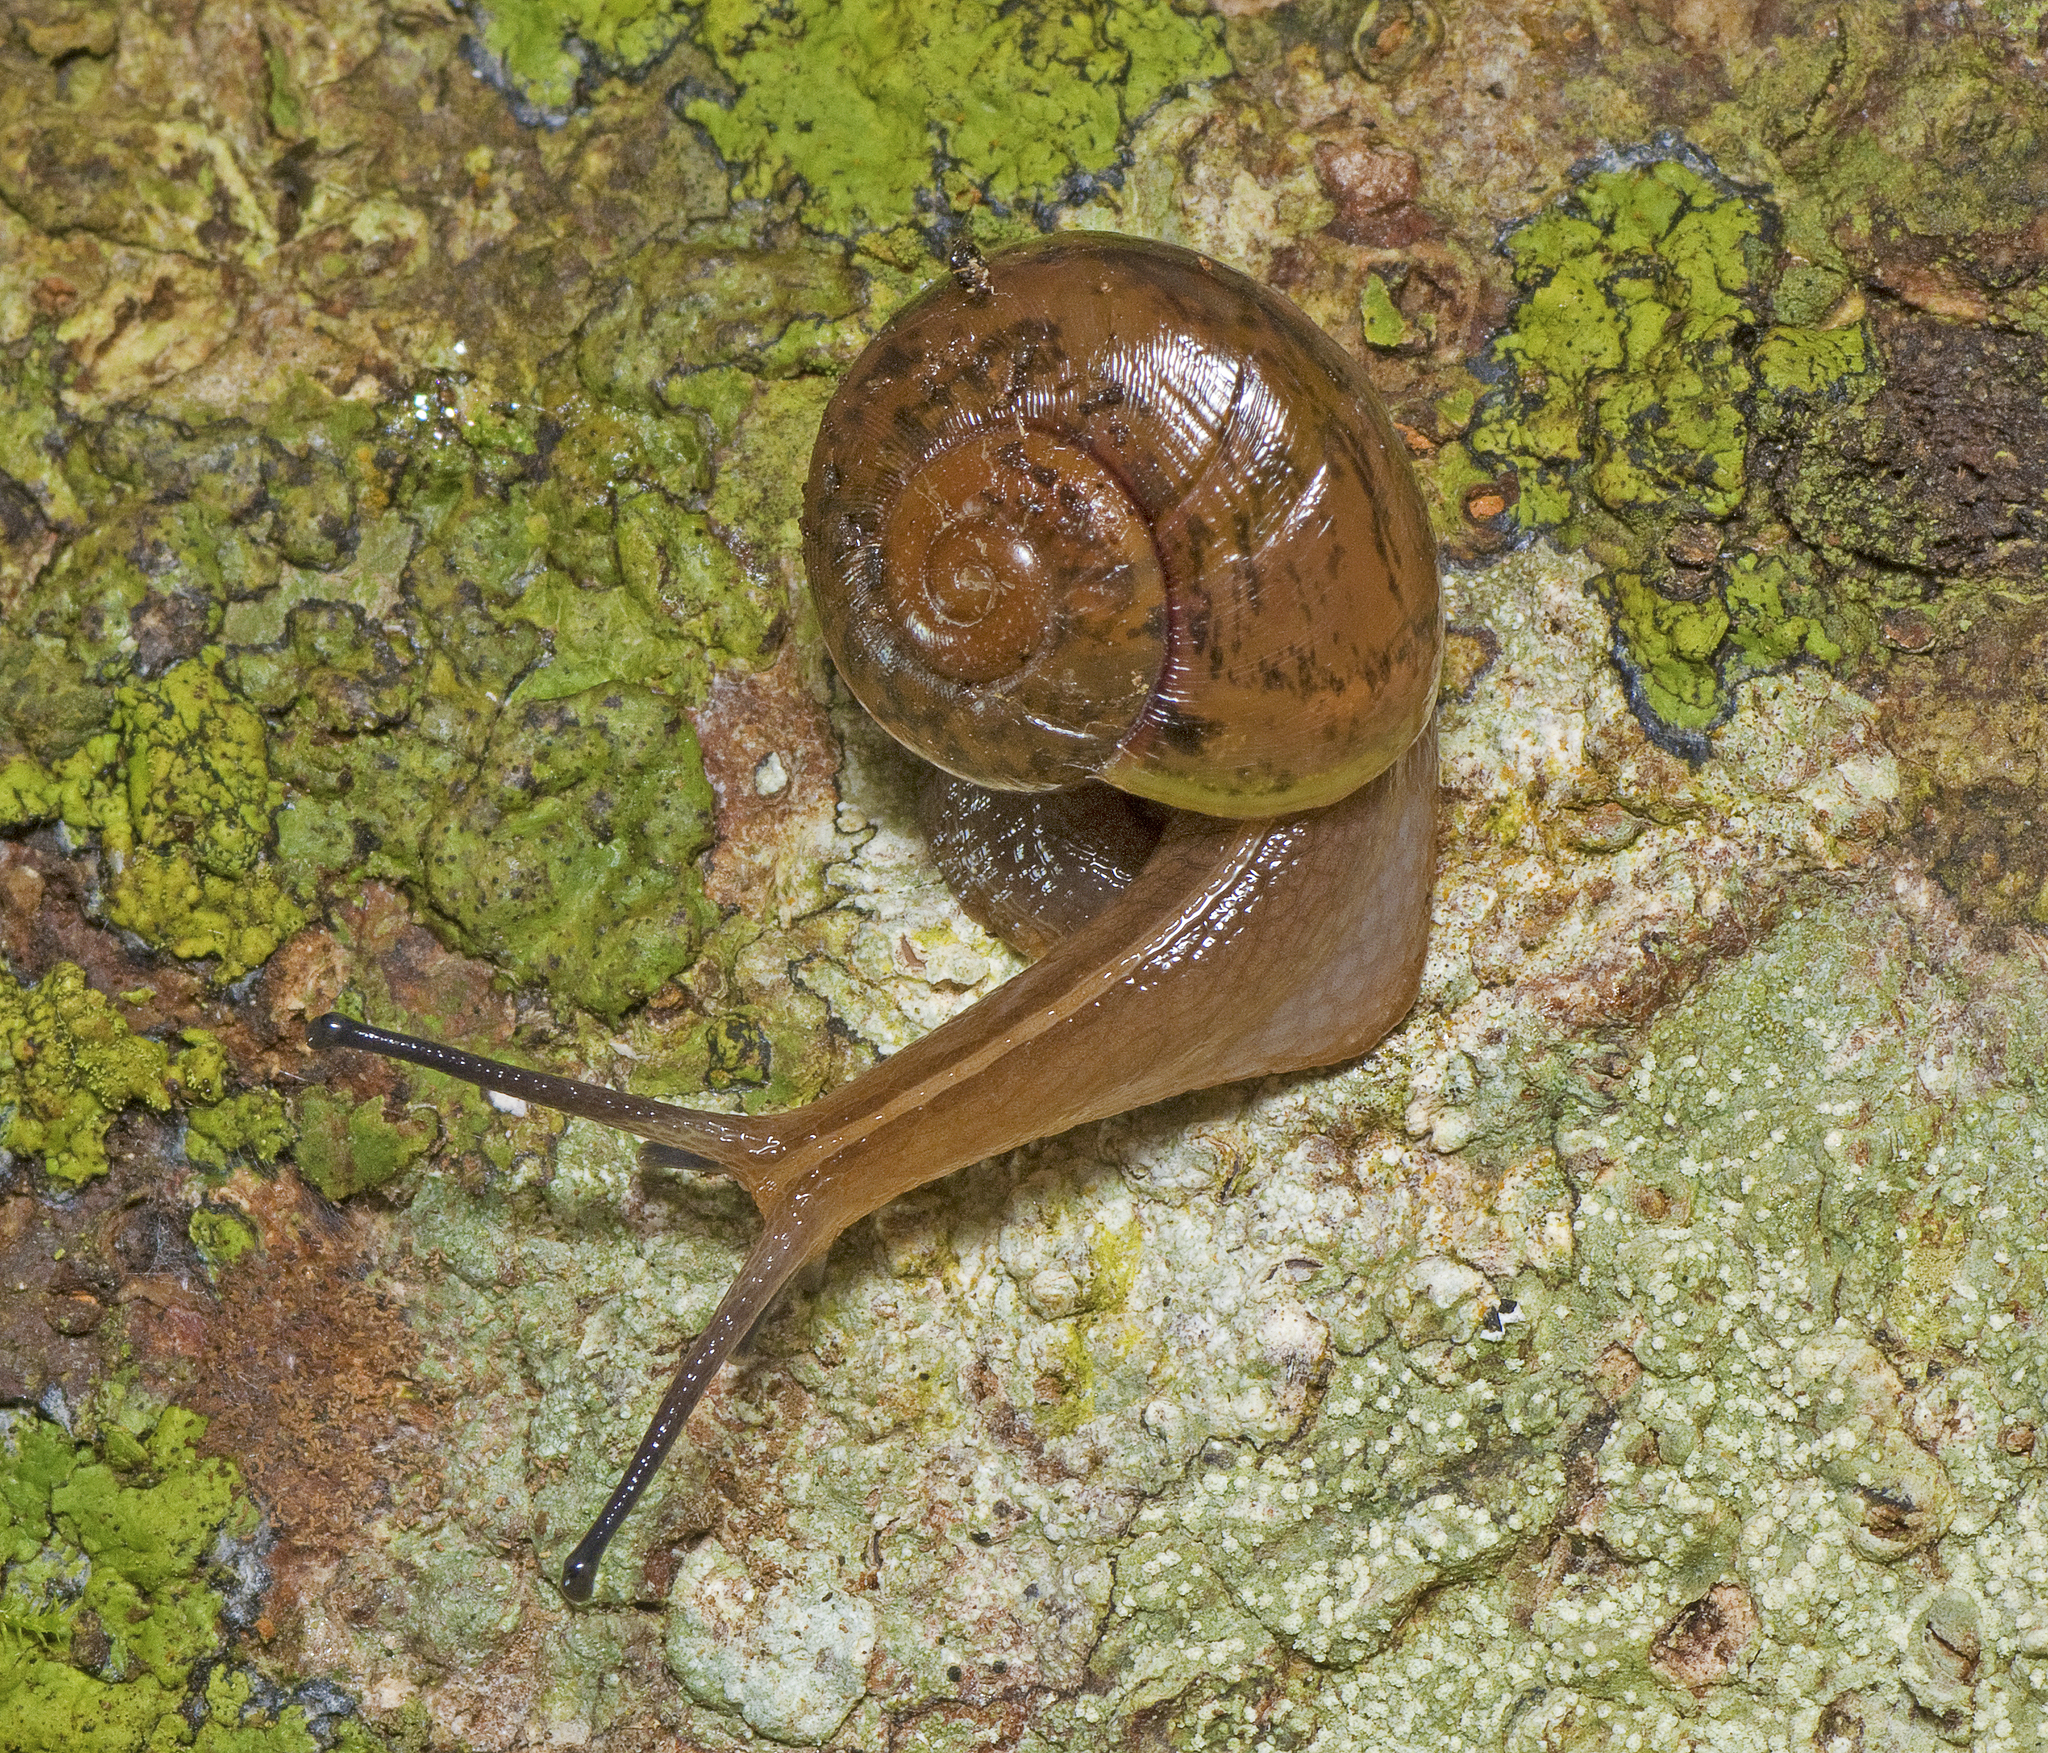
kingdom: Animalia
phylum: Mollusca
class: Gastropoda
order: Stylommatophora
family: Rhytididae
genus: Terrycarlessia
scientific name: Terrycarlessia bullacea
